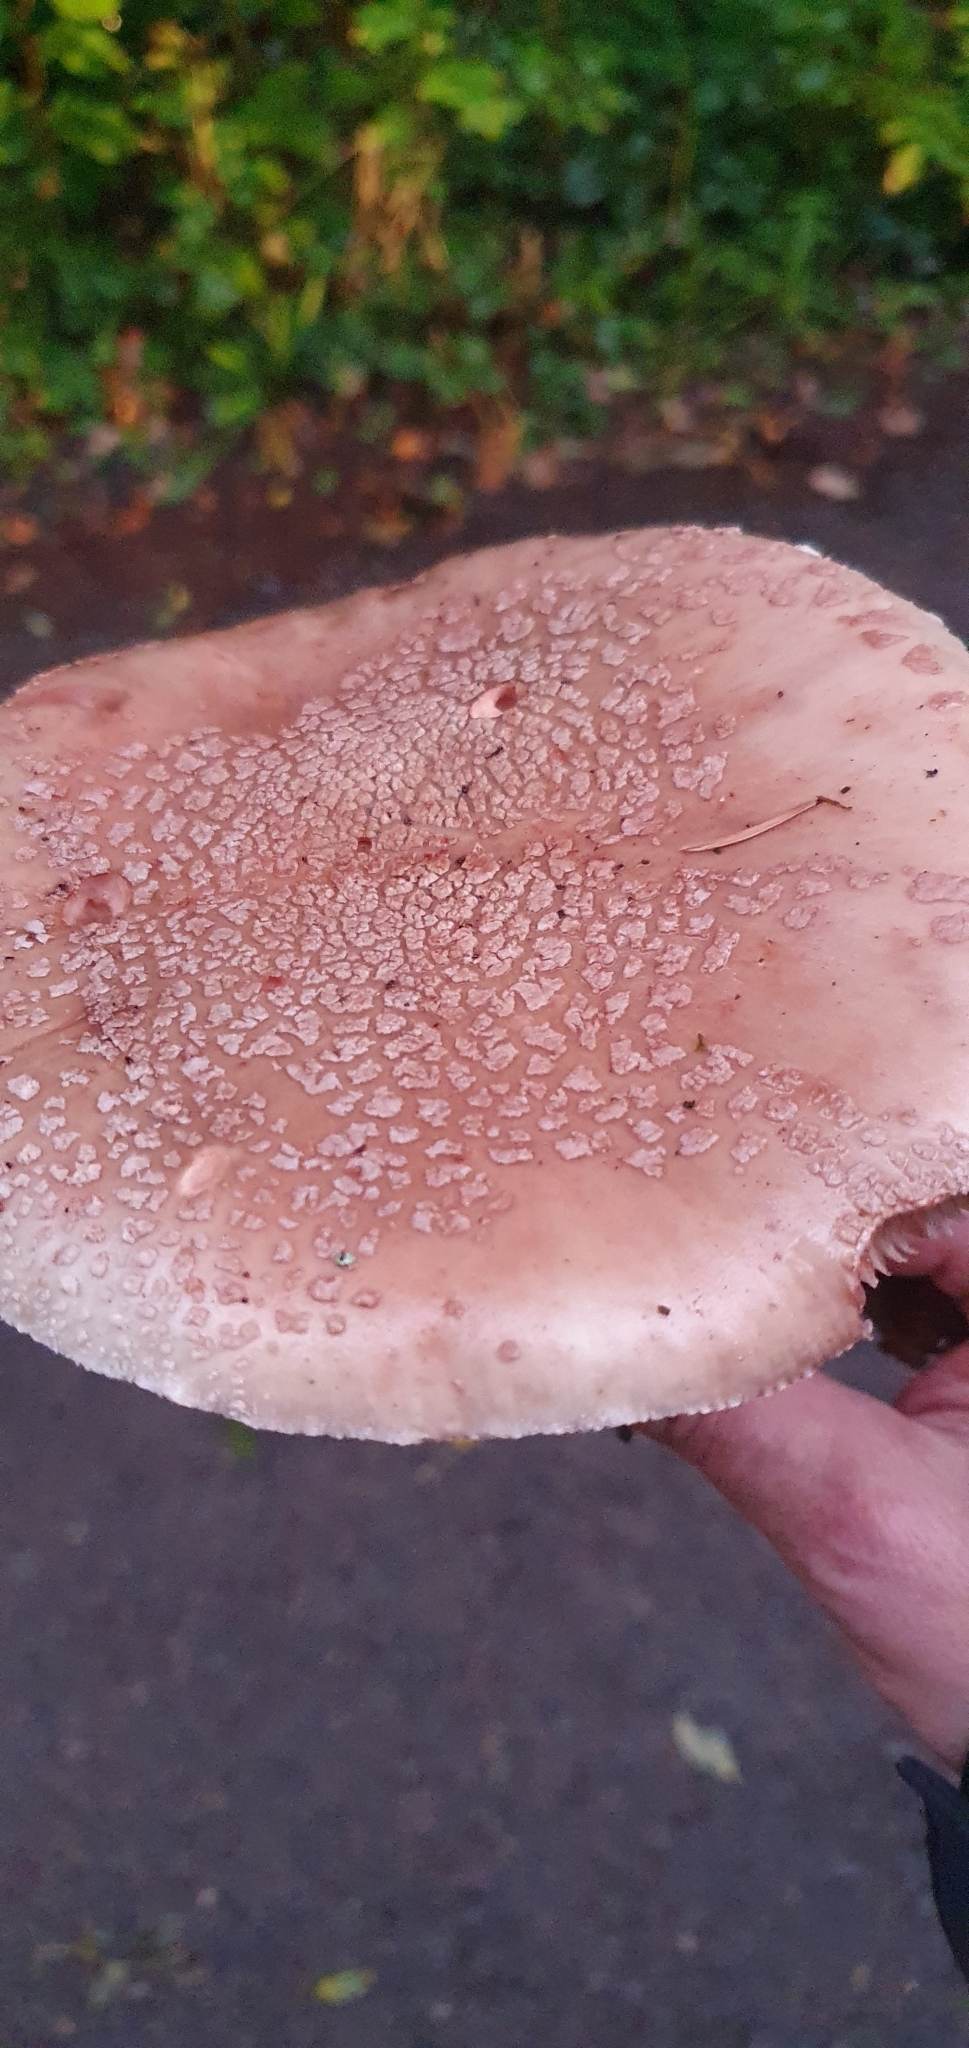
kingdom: Fungi
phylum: Basidiomycota
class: Agaricomycetes
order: Agaricales
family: Amanitaceae
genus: Amanita
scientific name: Amanita rubescens
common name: Blusher
